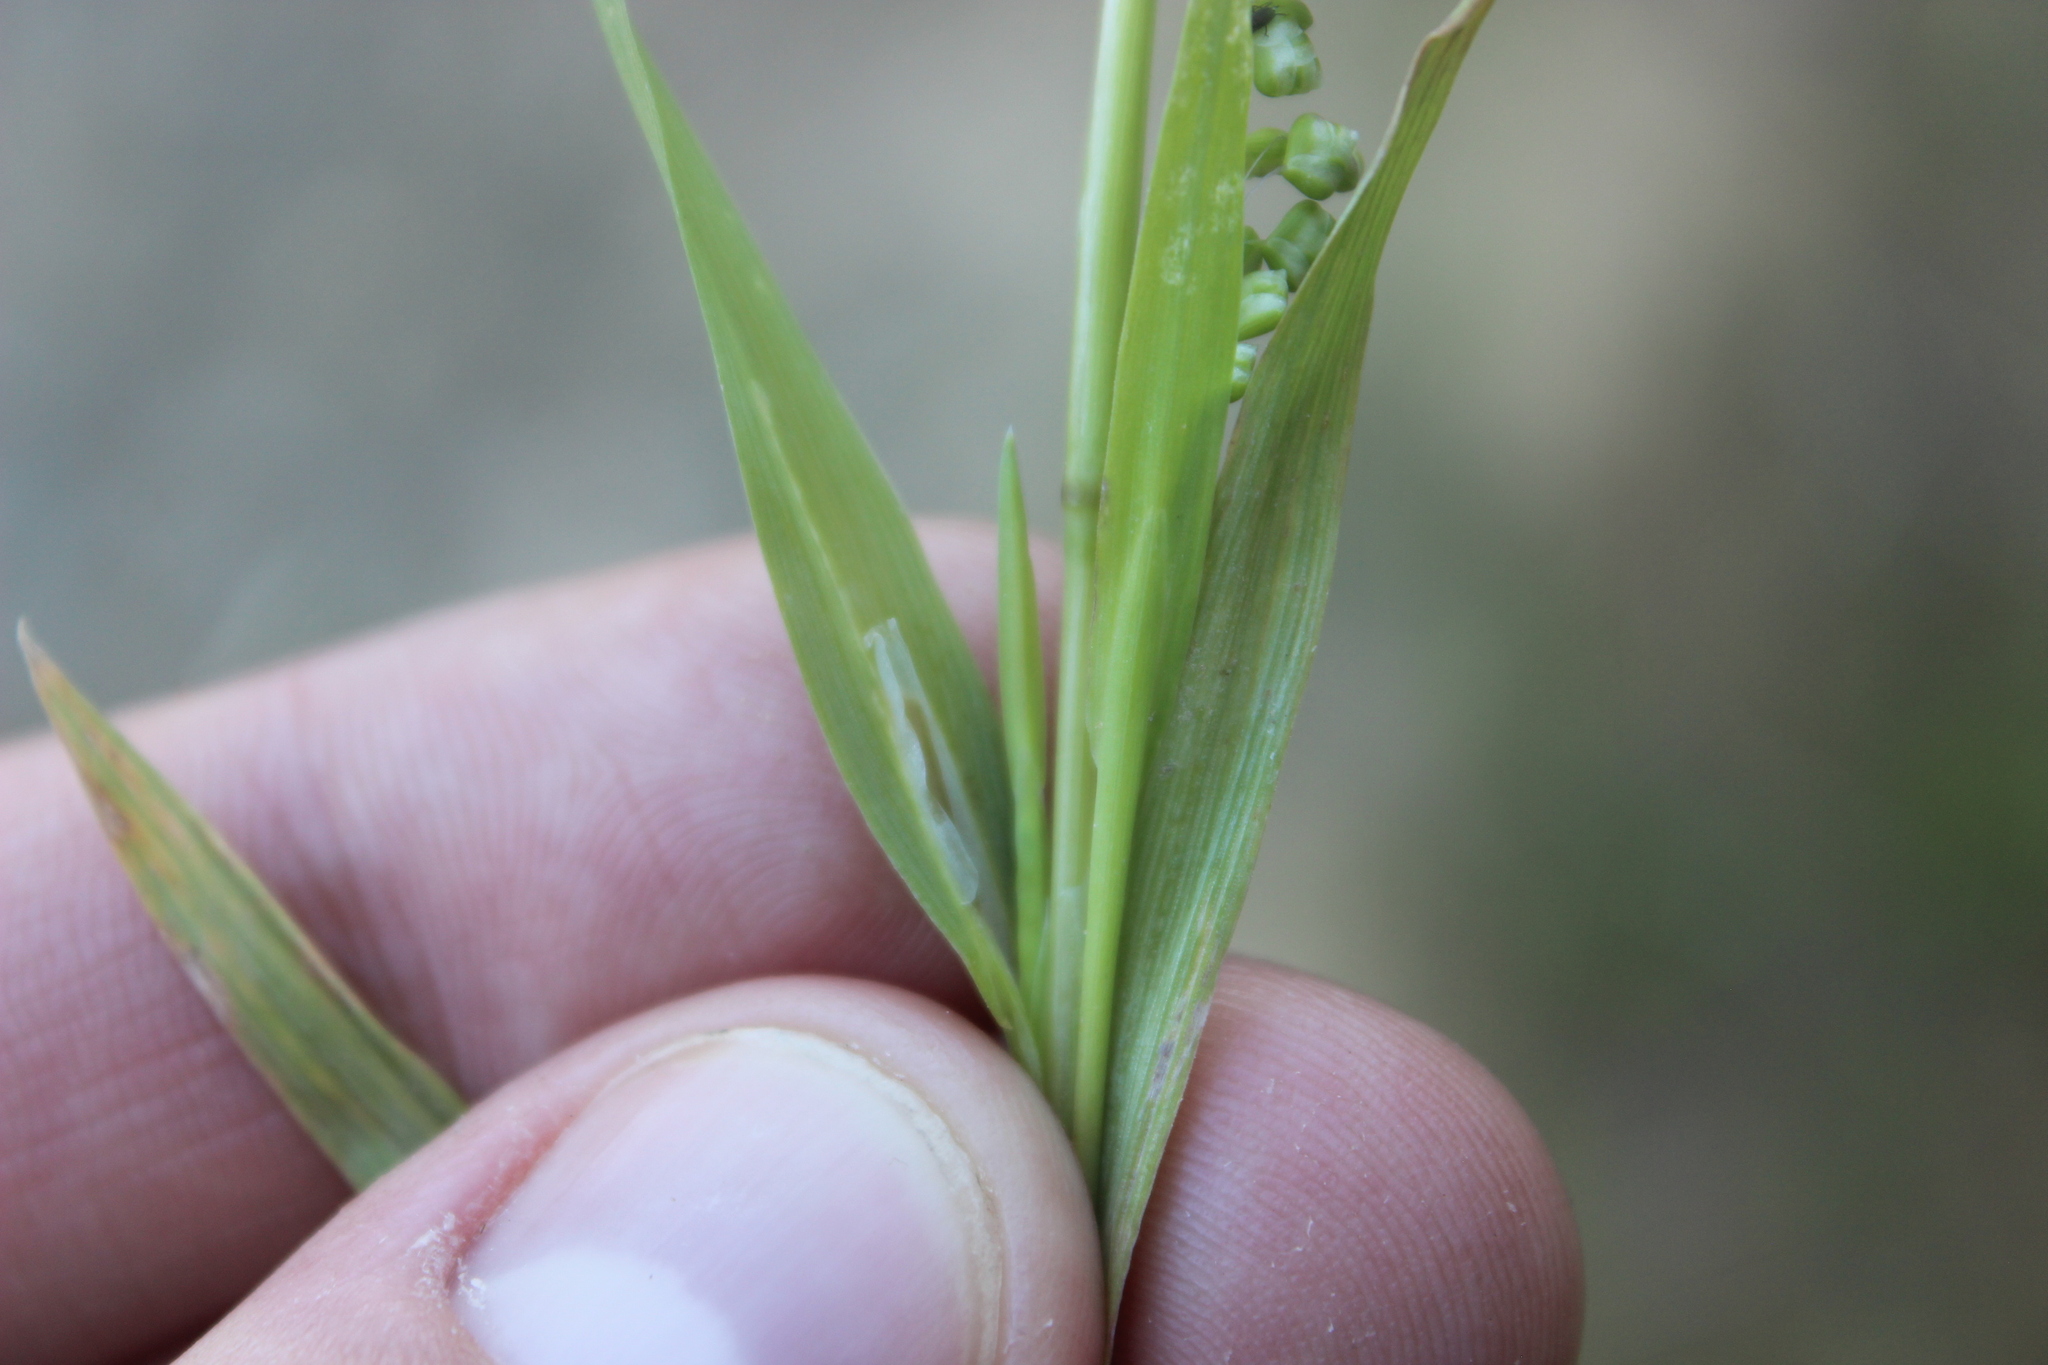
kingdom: Plantae
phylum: Tracheophyta
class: Liliopsida
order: Poales
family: Poaceae
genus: Briza
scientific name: Briza minor
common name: Lesser quaking-grass
